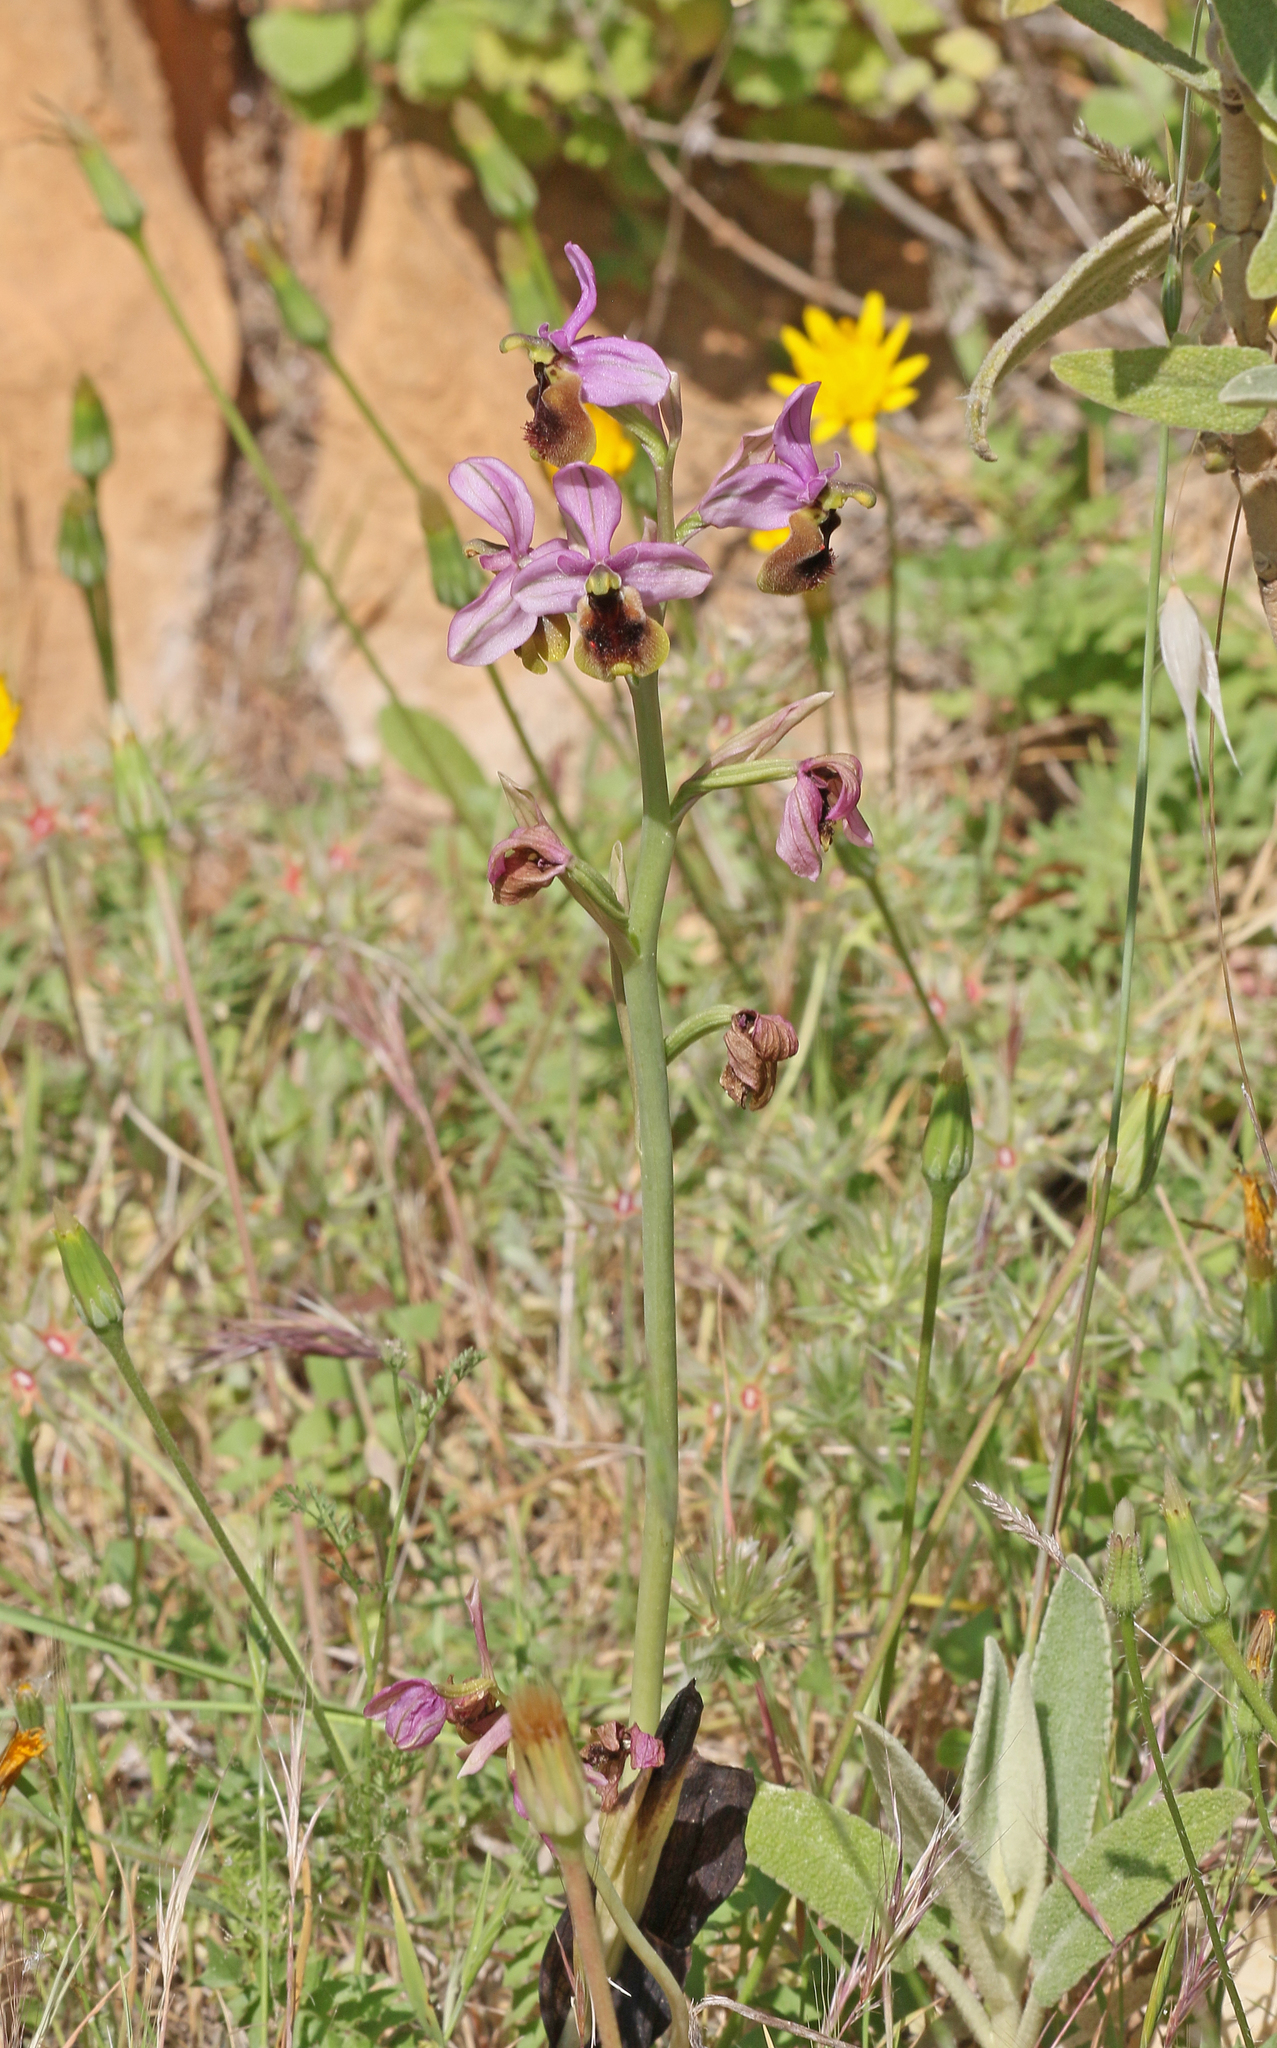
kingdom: Plantae
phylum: Tracheophyta
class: Liliopsida
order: Asparagales
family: Orchidaceae
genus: Ophrys
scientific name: Ophrys tenthredinifera
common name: Sawfly orchid
